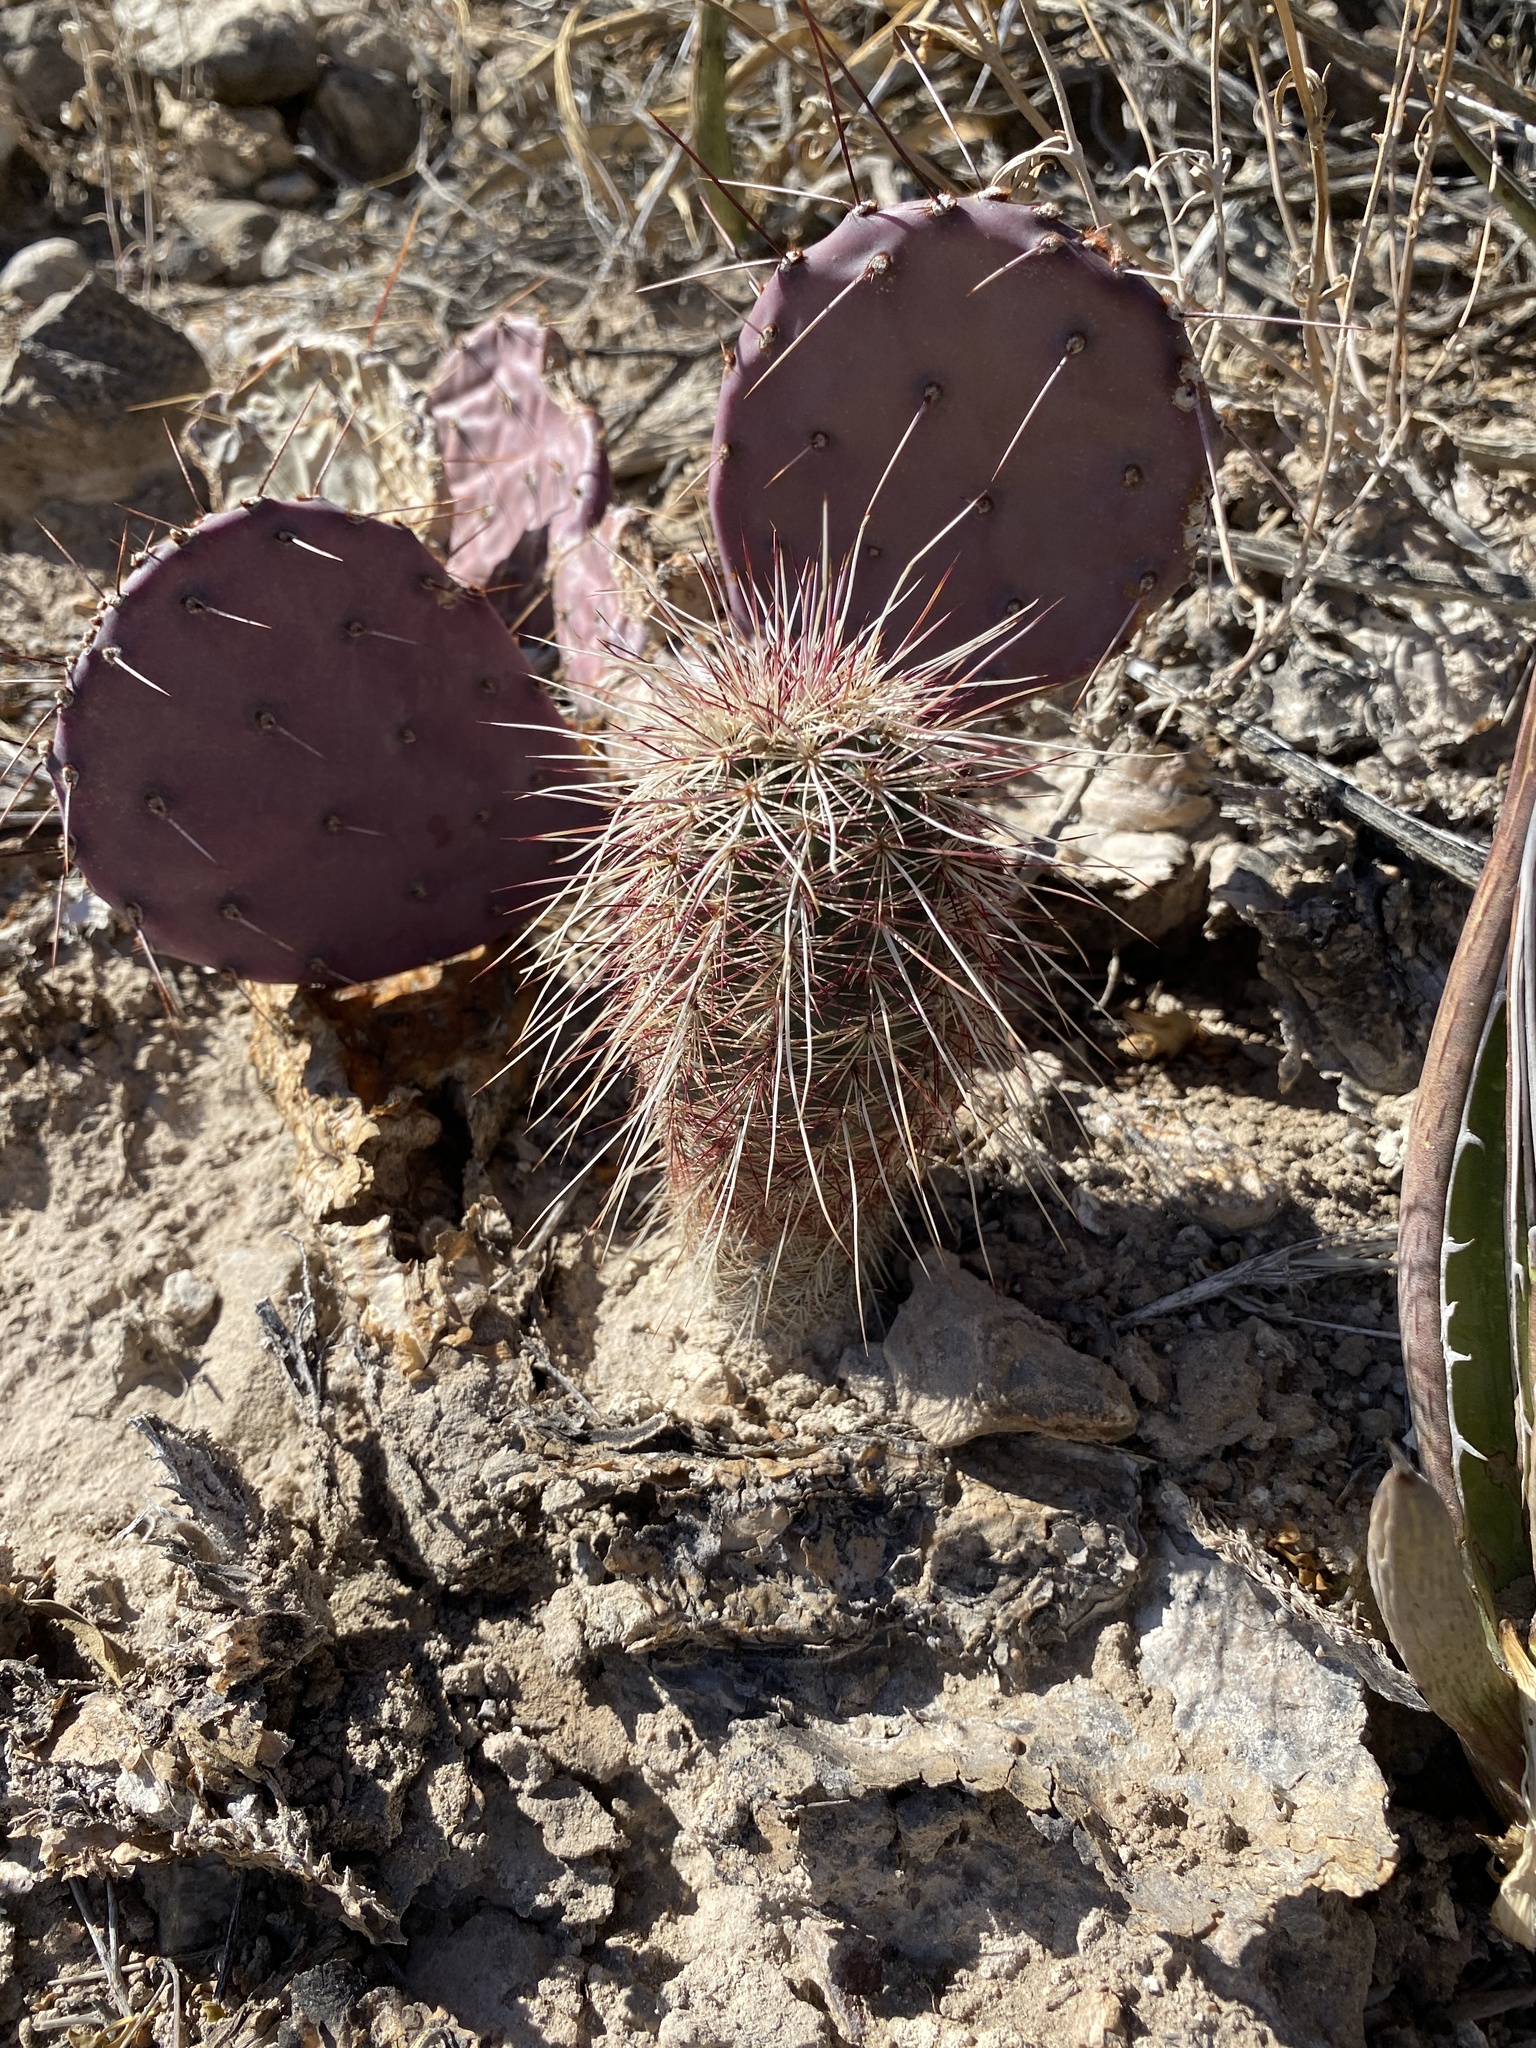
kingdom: Plantae
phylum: Tracheophyta
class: Magnoliopsida
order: Caryophyllales
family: Cactaceae
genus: Echinocereus
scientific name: Echinocereus viridiflorus
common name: Nylon hedgehog cactus
